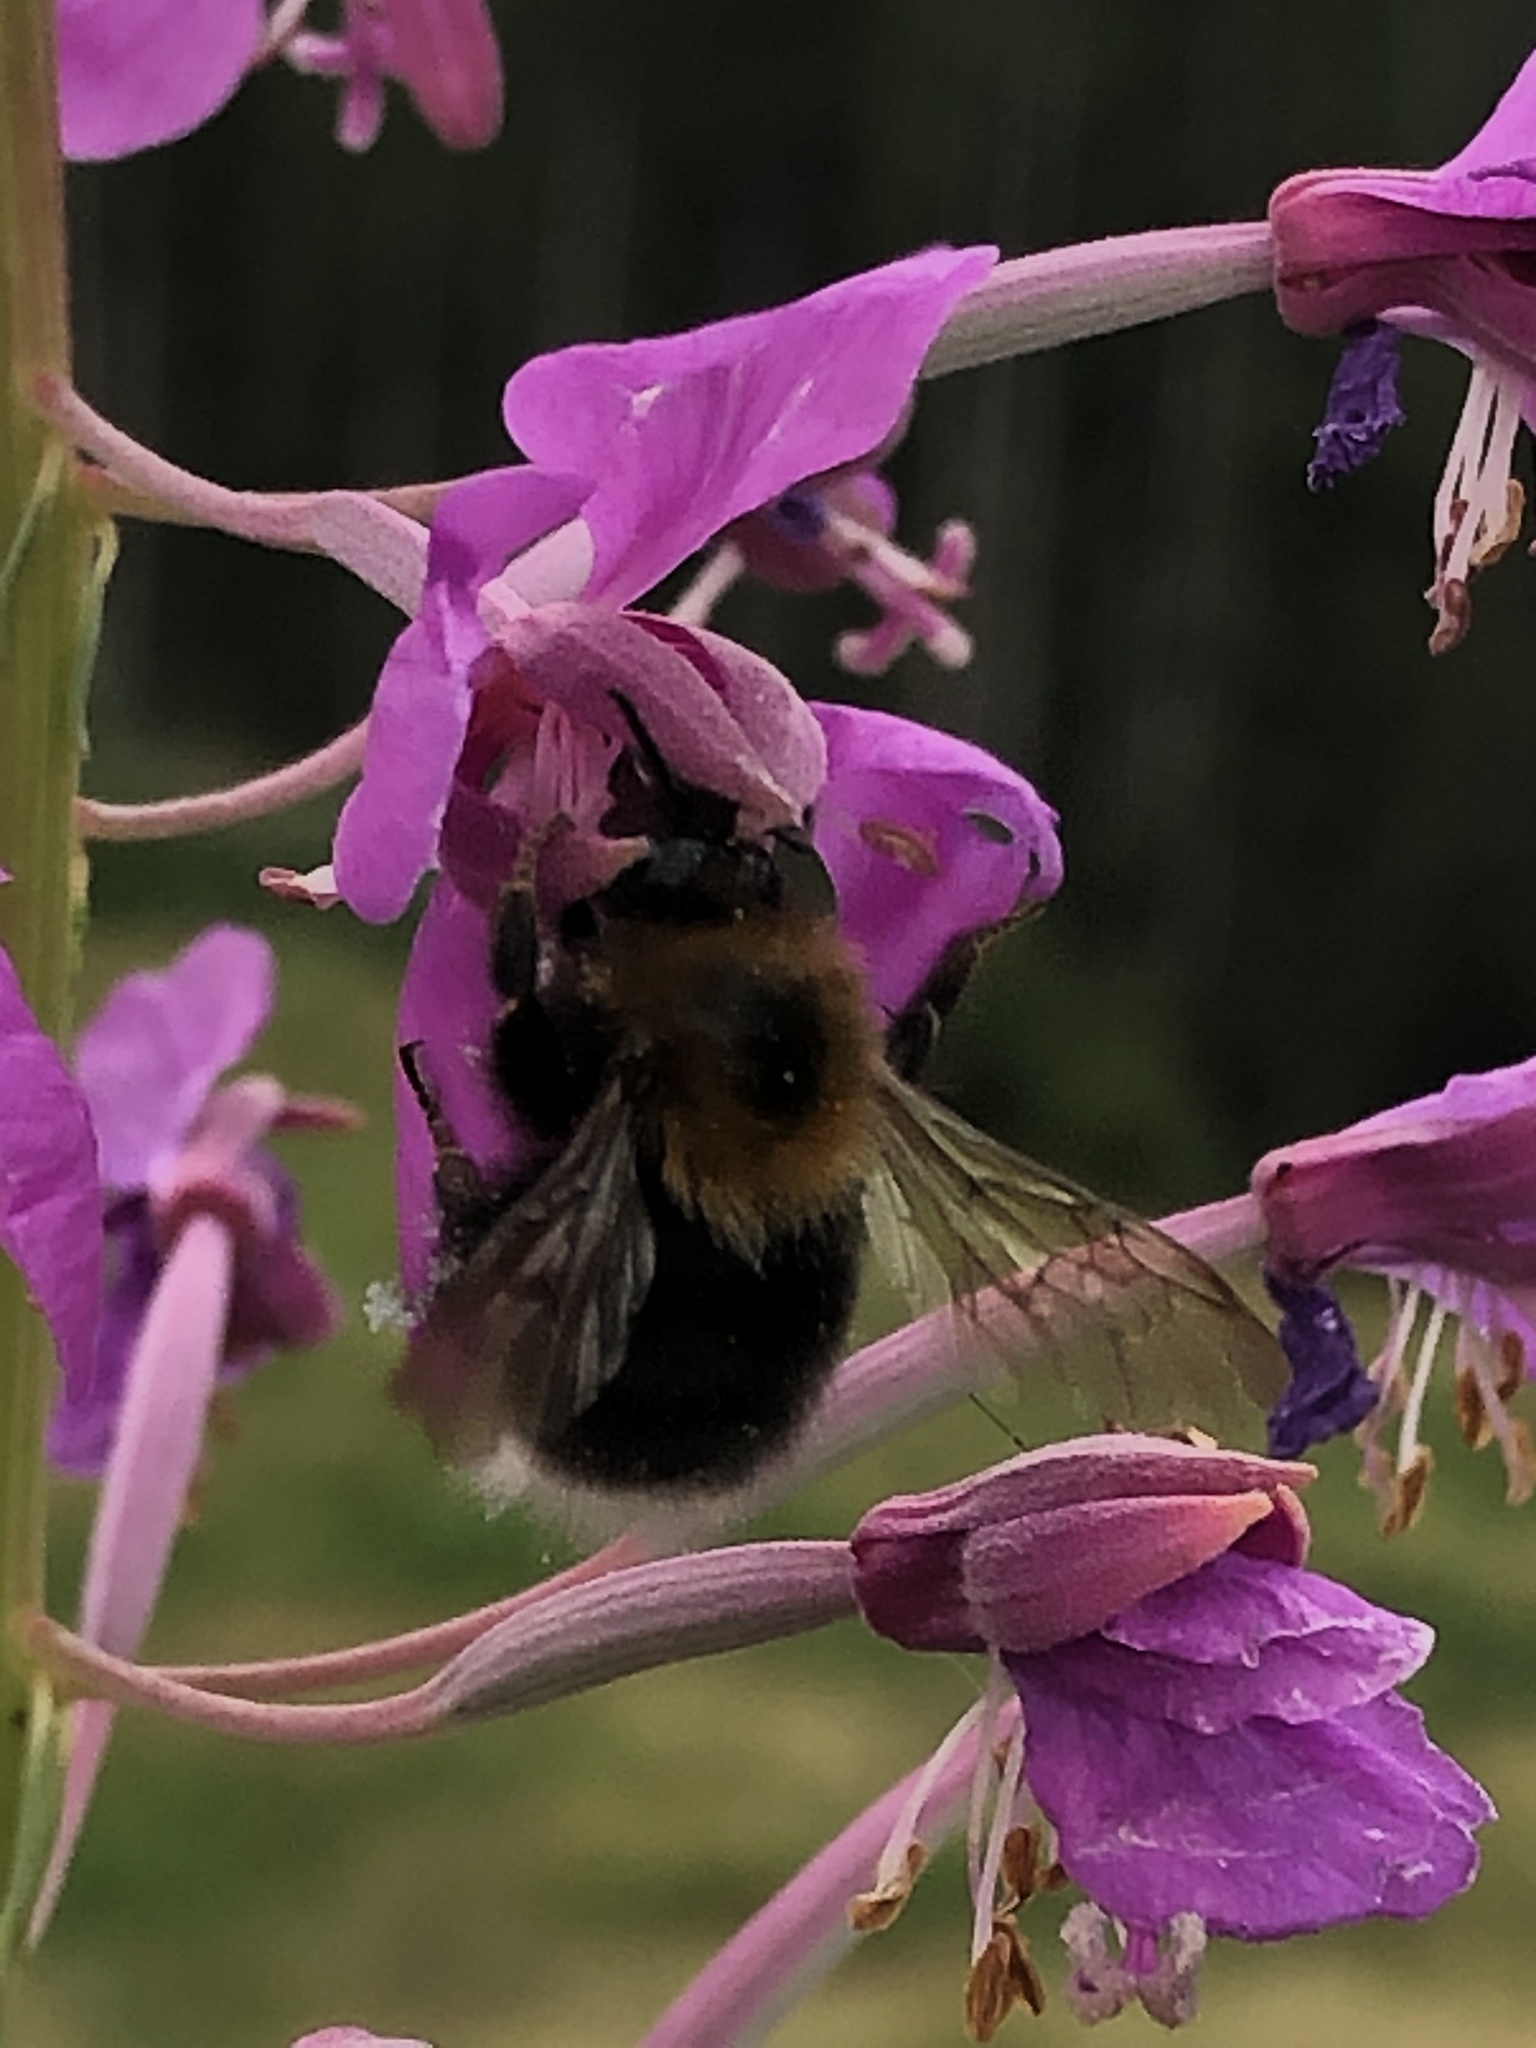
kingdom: Animalia
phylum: Arthropoda
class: Insecta
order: Hymenoptera
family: Apidae
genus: Bombus
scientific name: Bombus hypnorum
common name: New garden bumblebee
